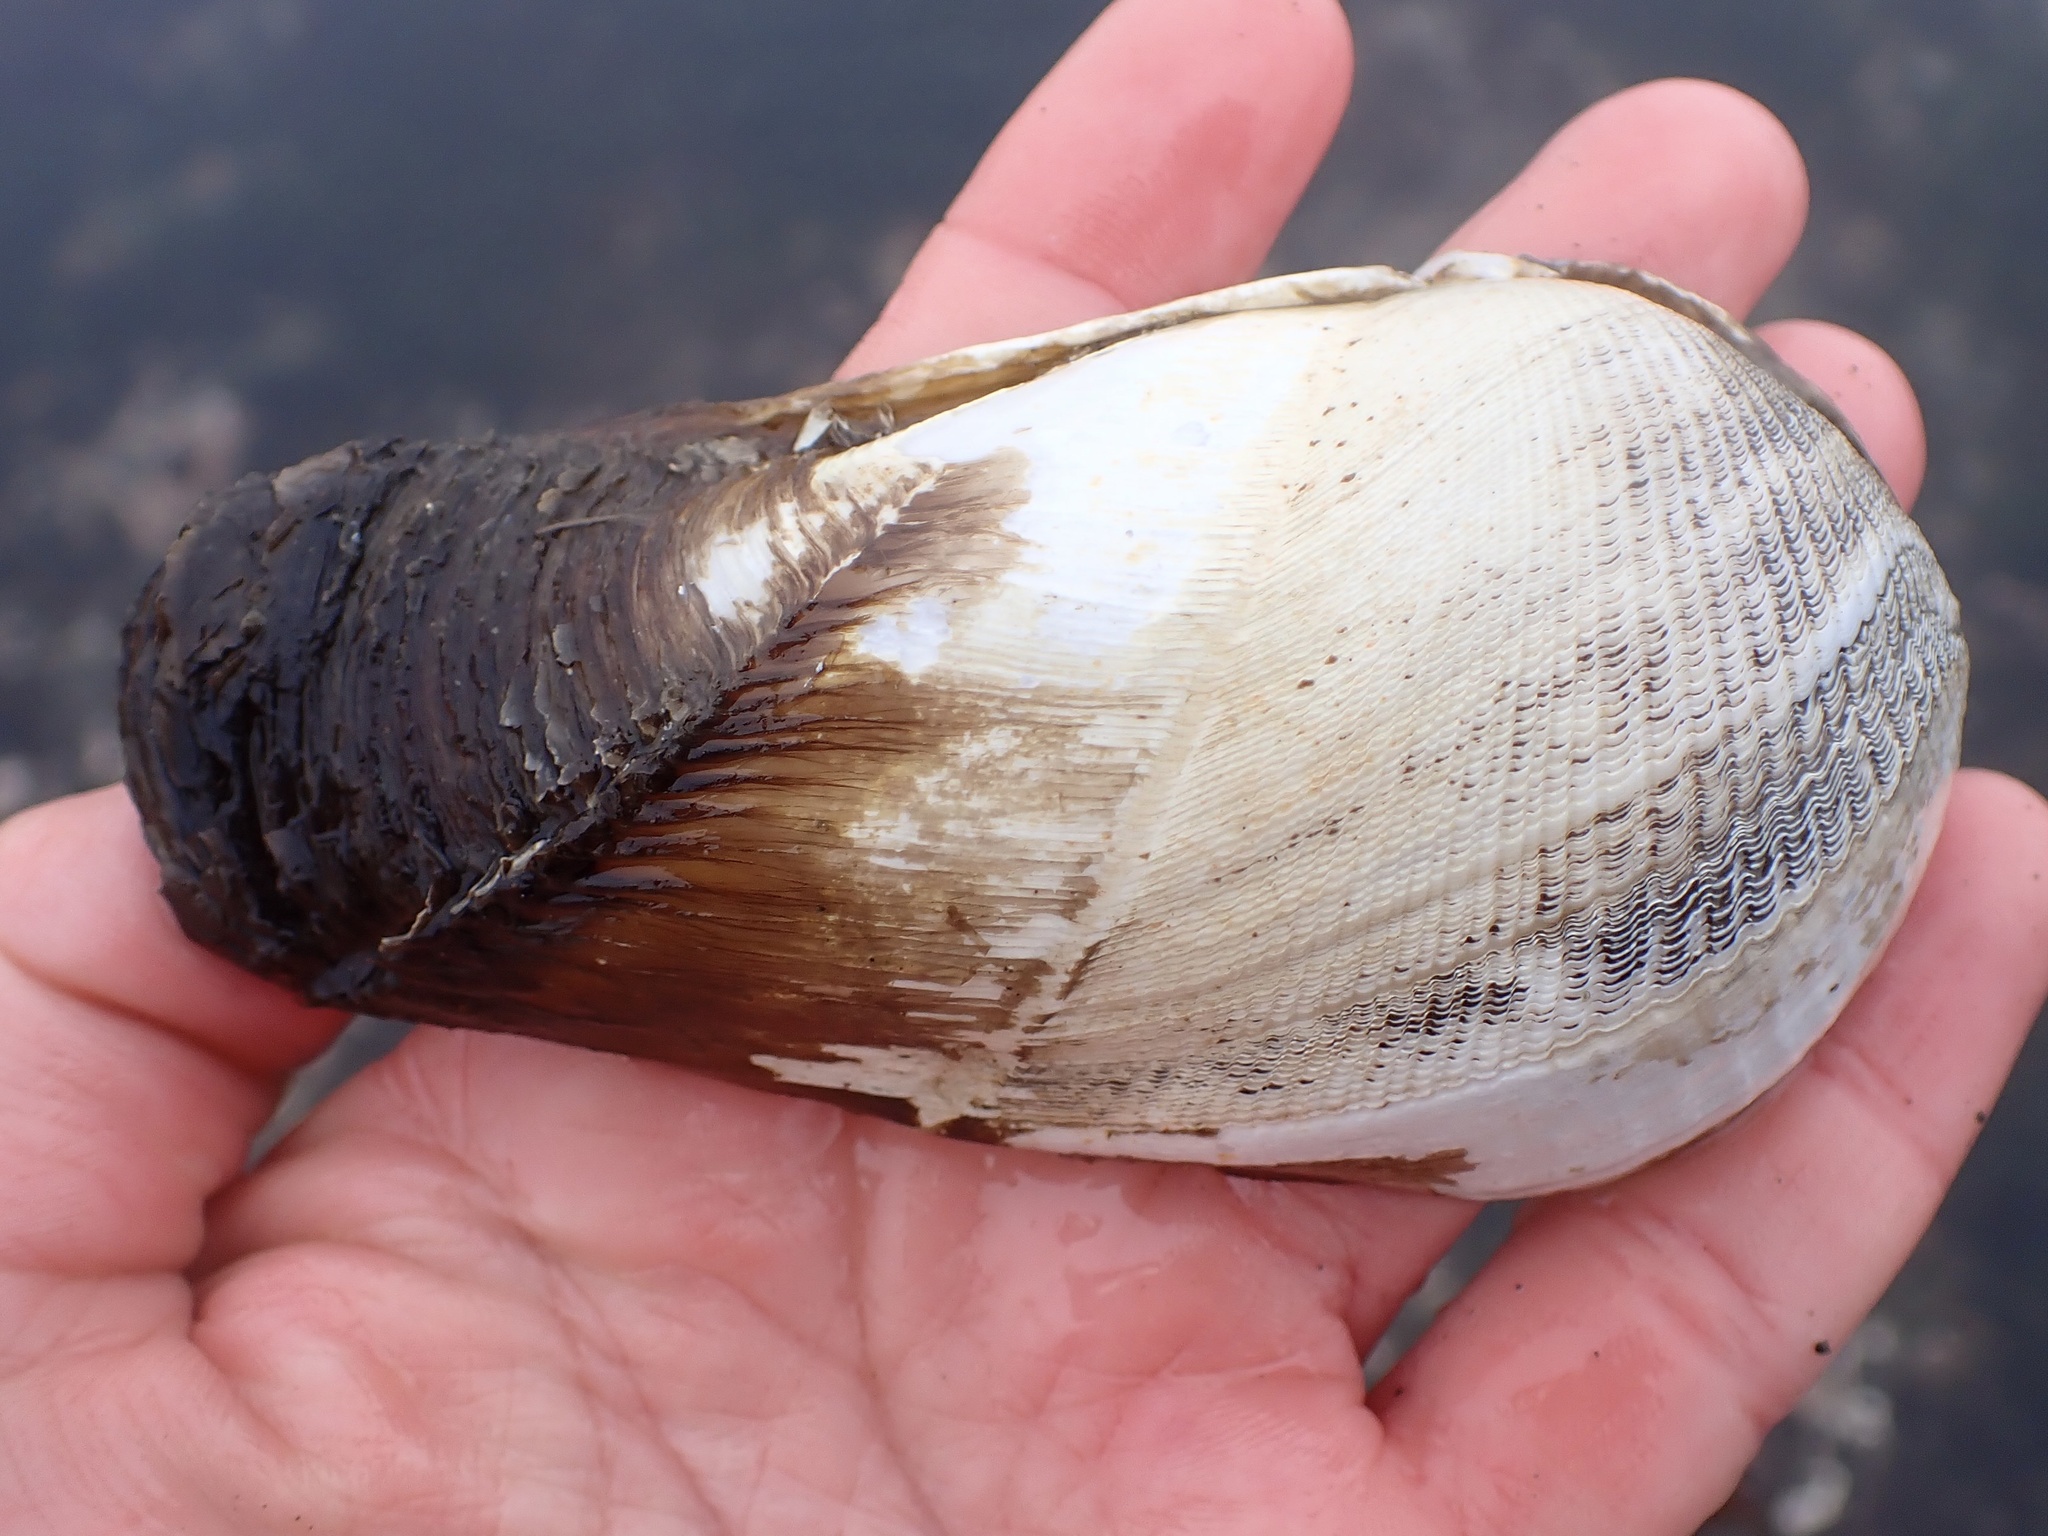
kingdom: Animalia
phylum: Mollusca
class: Bivalvia
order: Myida
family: Pholadidae
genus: Parapholas
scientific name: Parapholas californica
